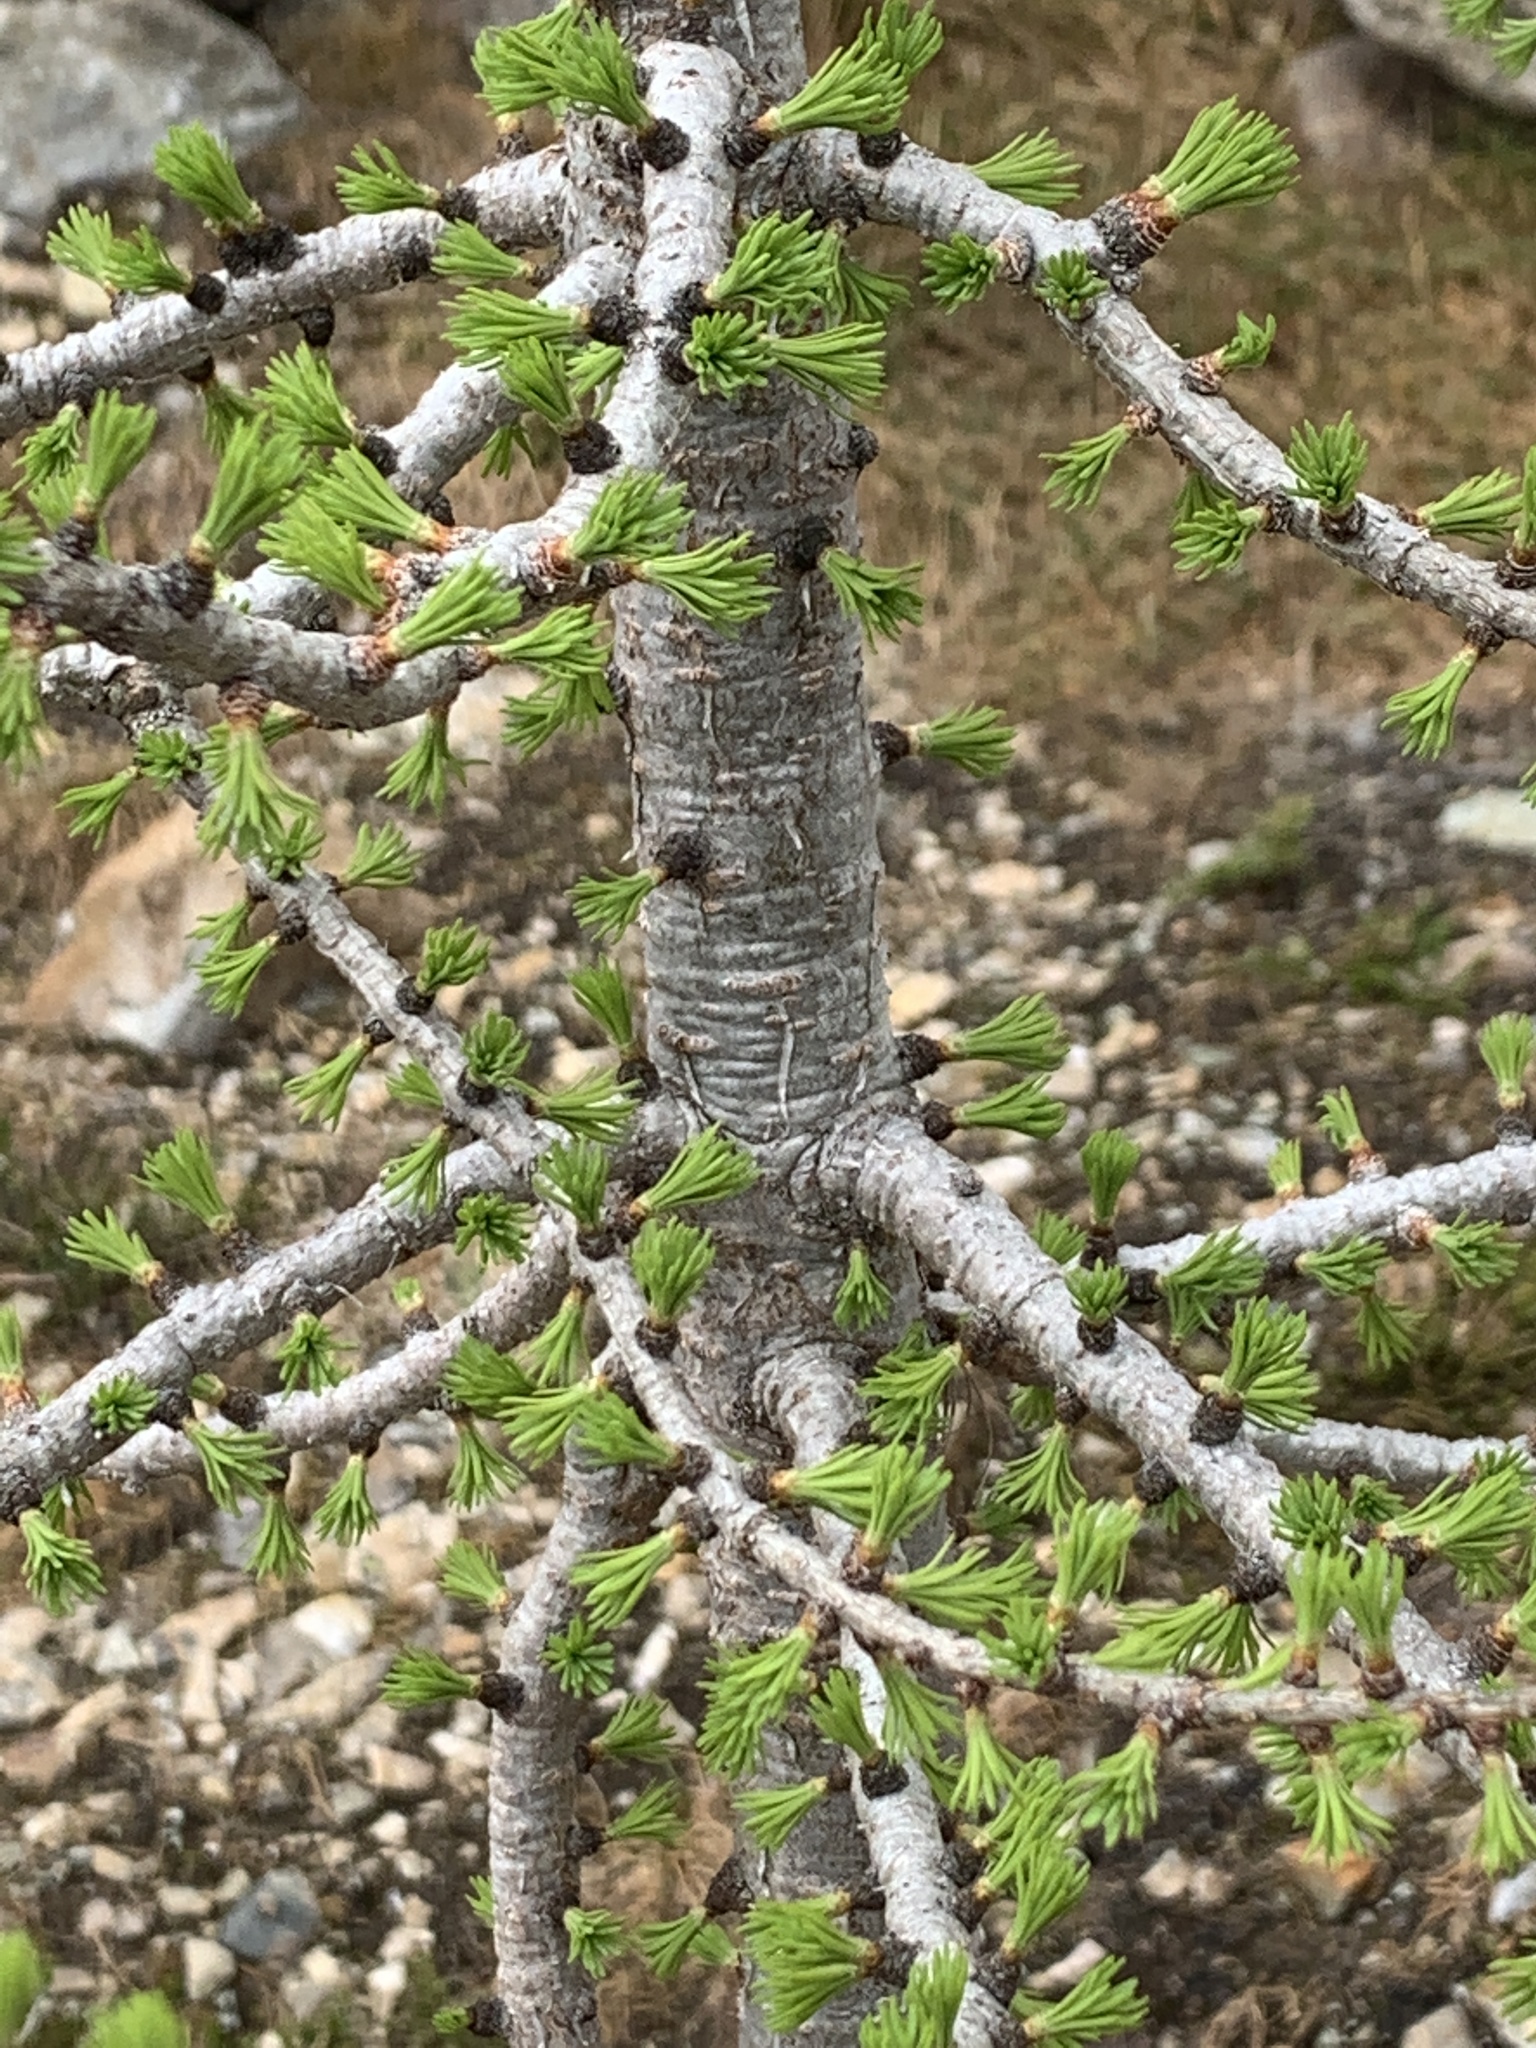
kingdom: Plantae
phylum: Tracheophyta
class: Pinopsida
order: Pinales
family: Pinaceae
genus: Larix
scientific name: Larix lyallii
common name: Alpine larch
